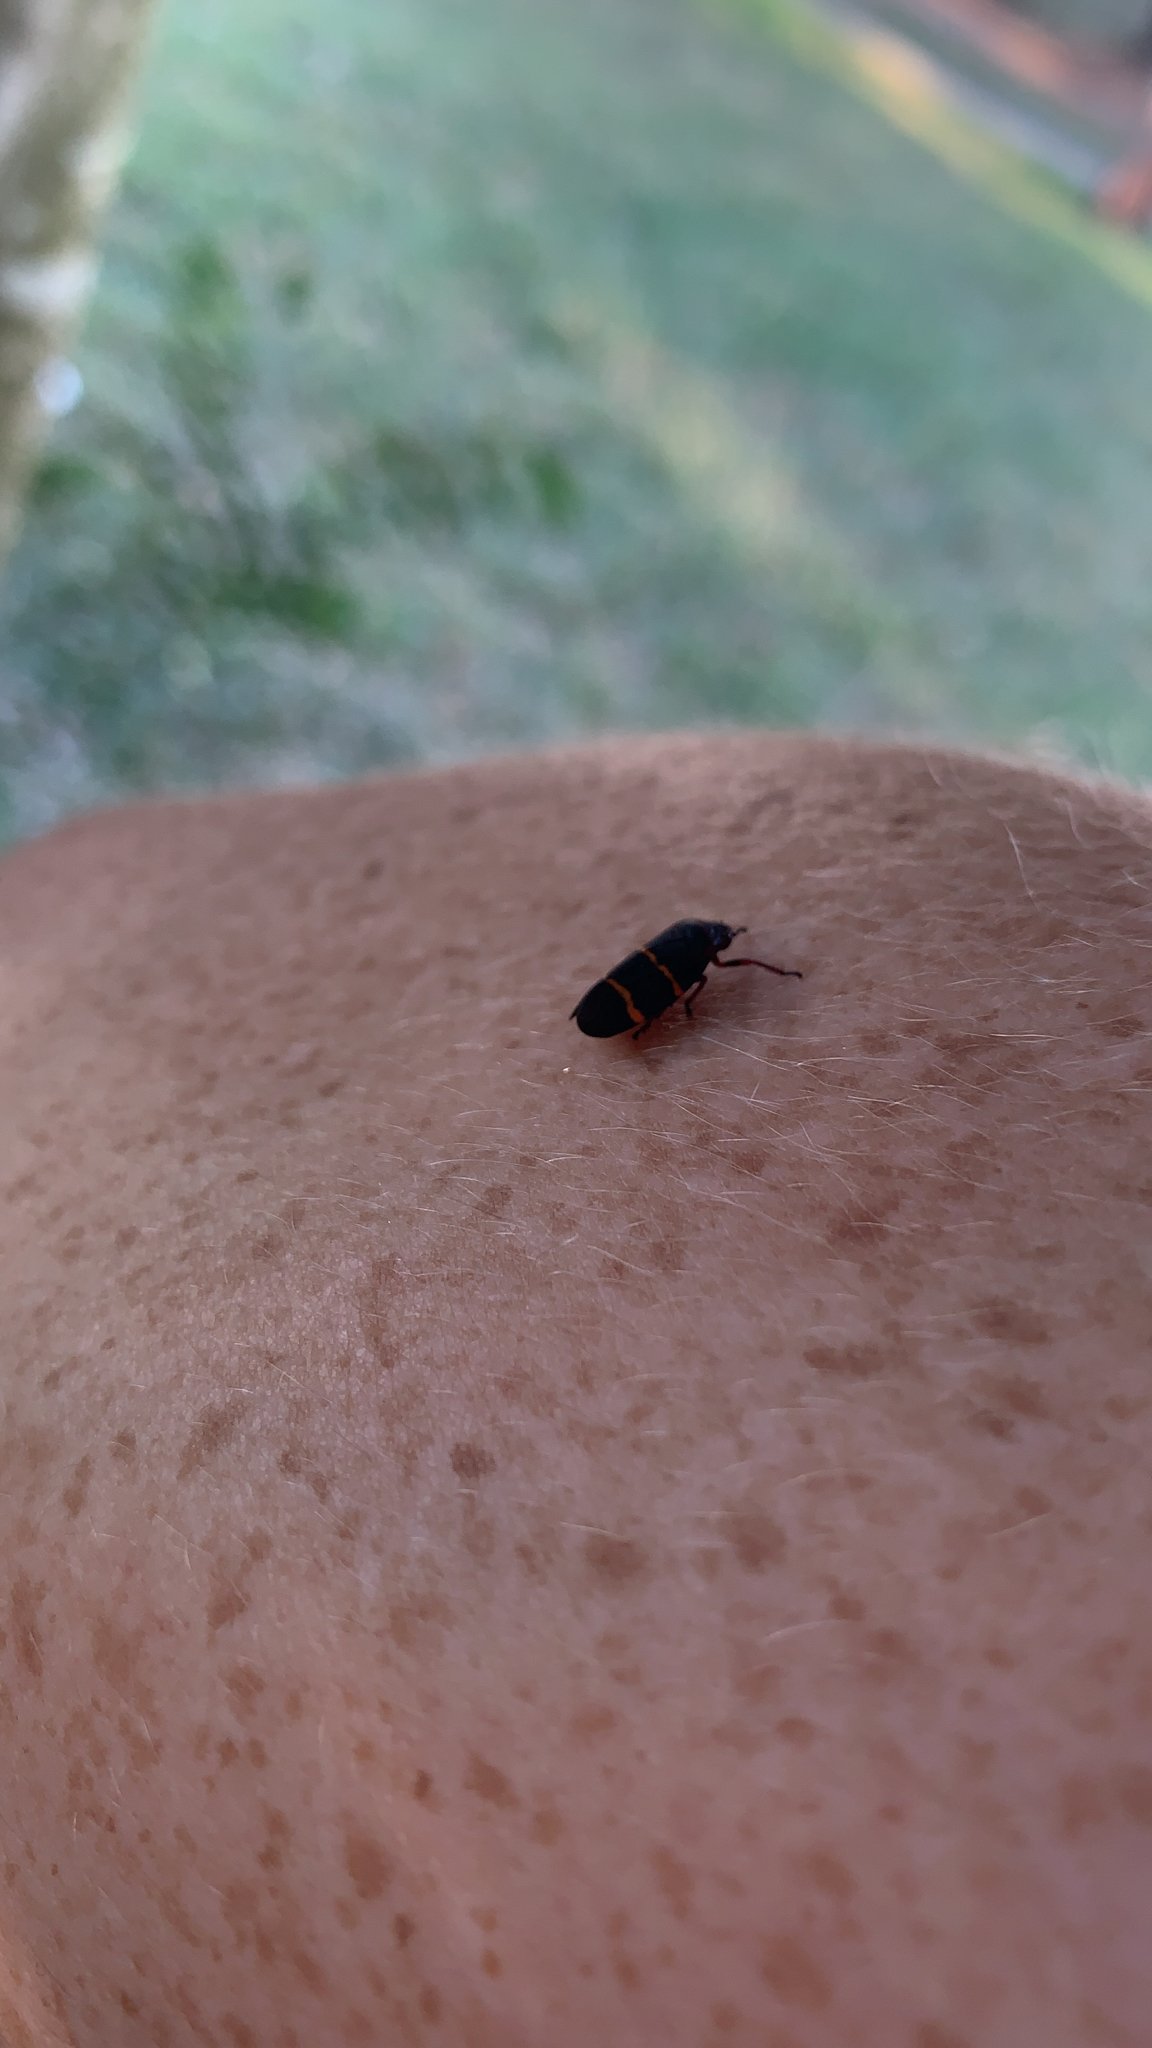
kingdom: Animalia
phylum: Arthropoda
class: Insecta
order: Hemiptera
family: Cercopidae
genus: Prosapia
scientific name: Prosapia bicincta
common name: Twolined spittlebug
